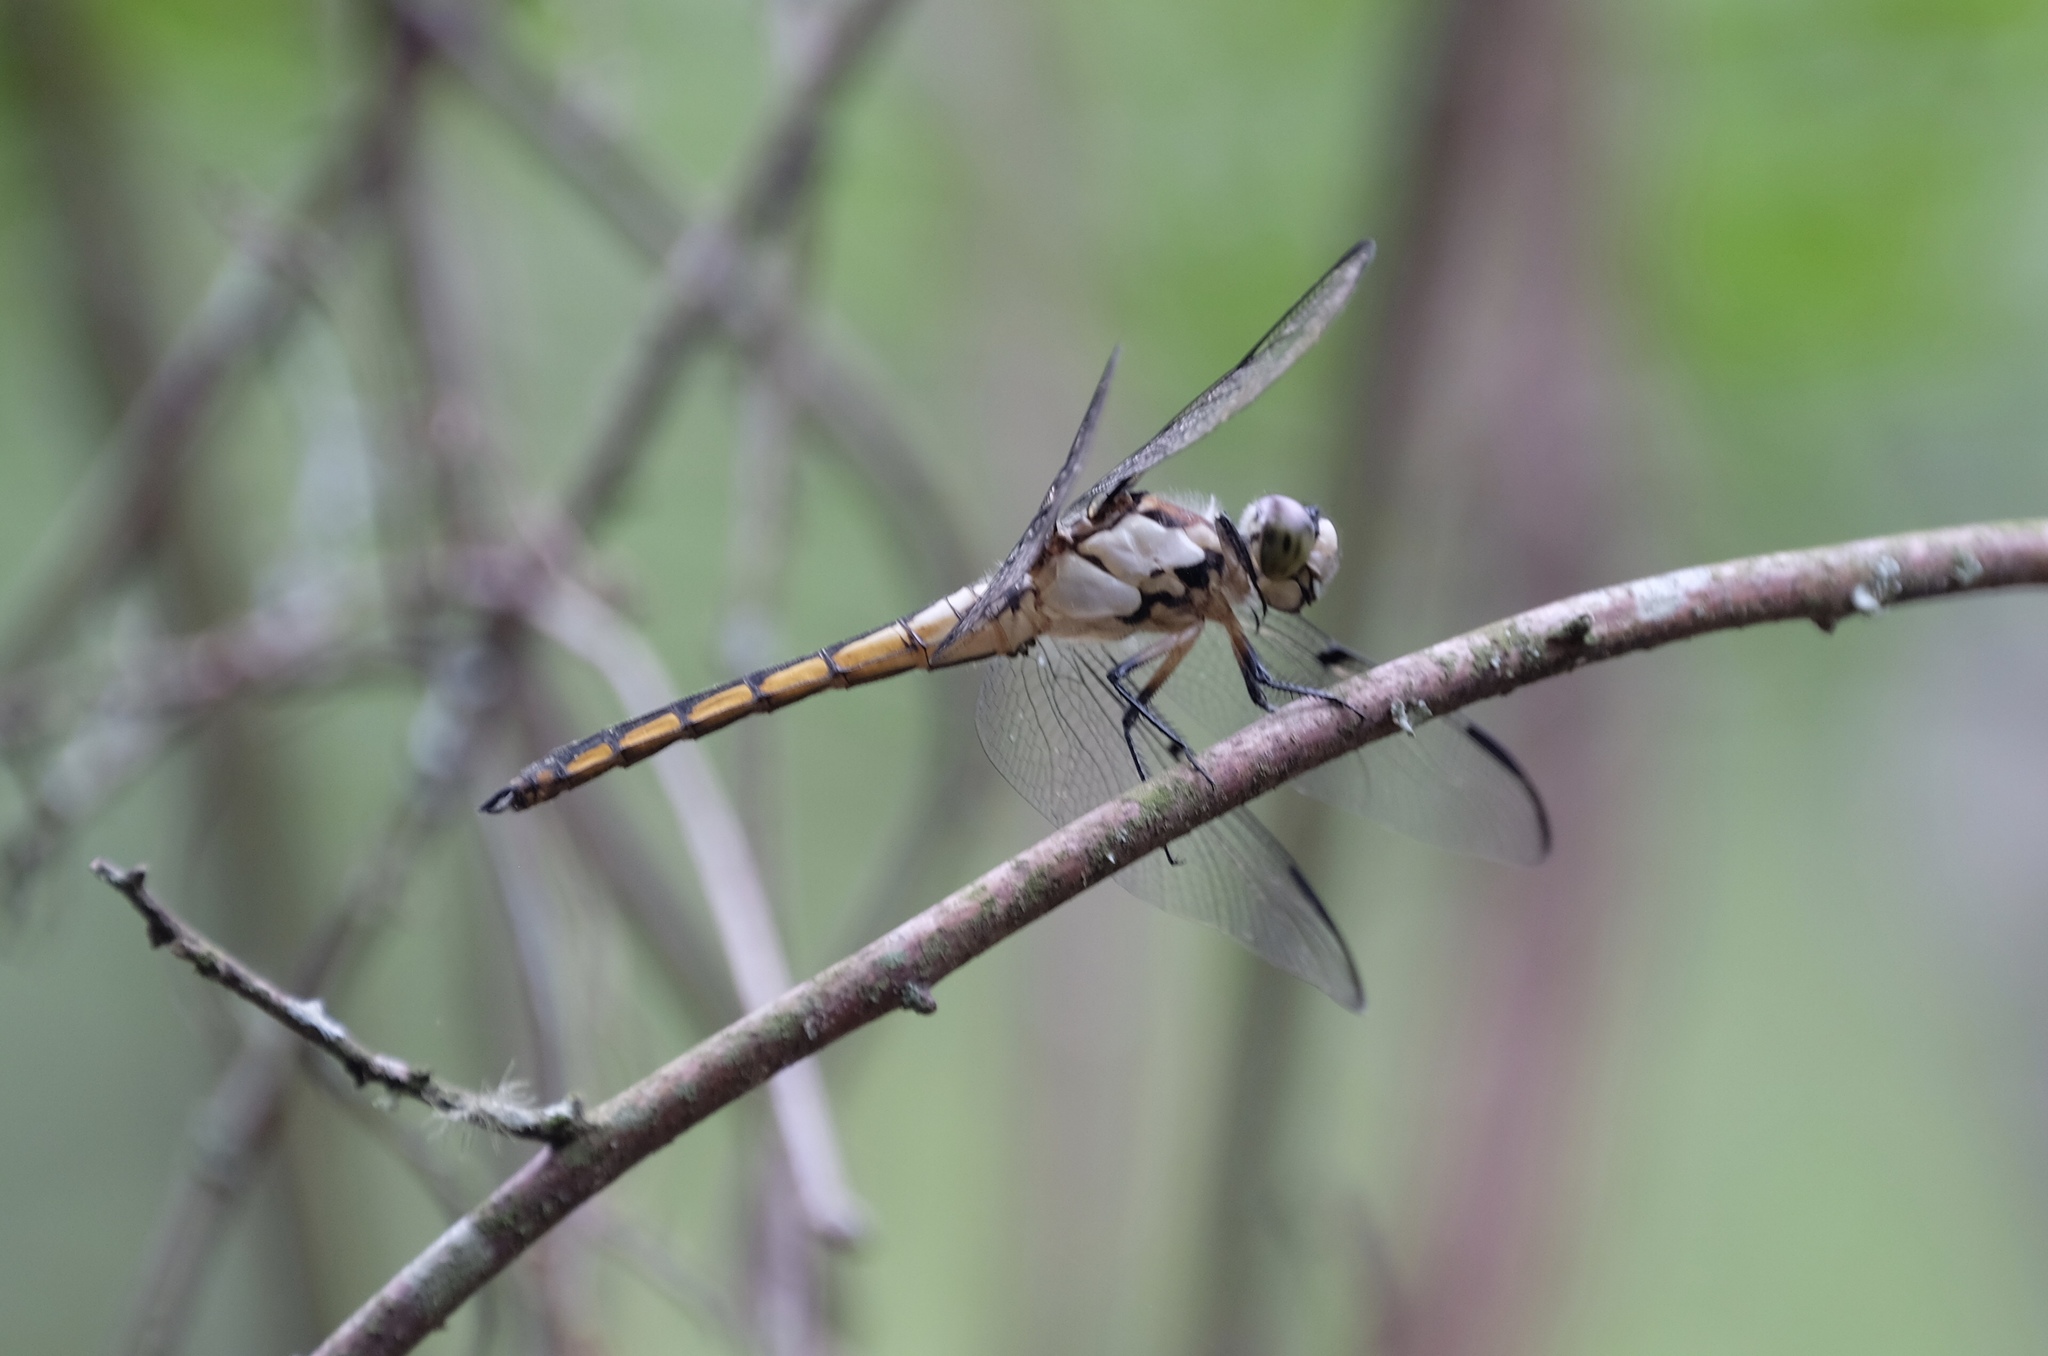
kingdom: Animalia
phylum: Arthropoda
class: Insecta
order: Odonata
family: Libellulidae
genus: Libellula
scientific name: Libellula vibrans
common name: Great blue skimmer
